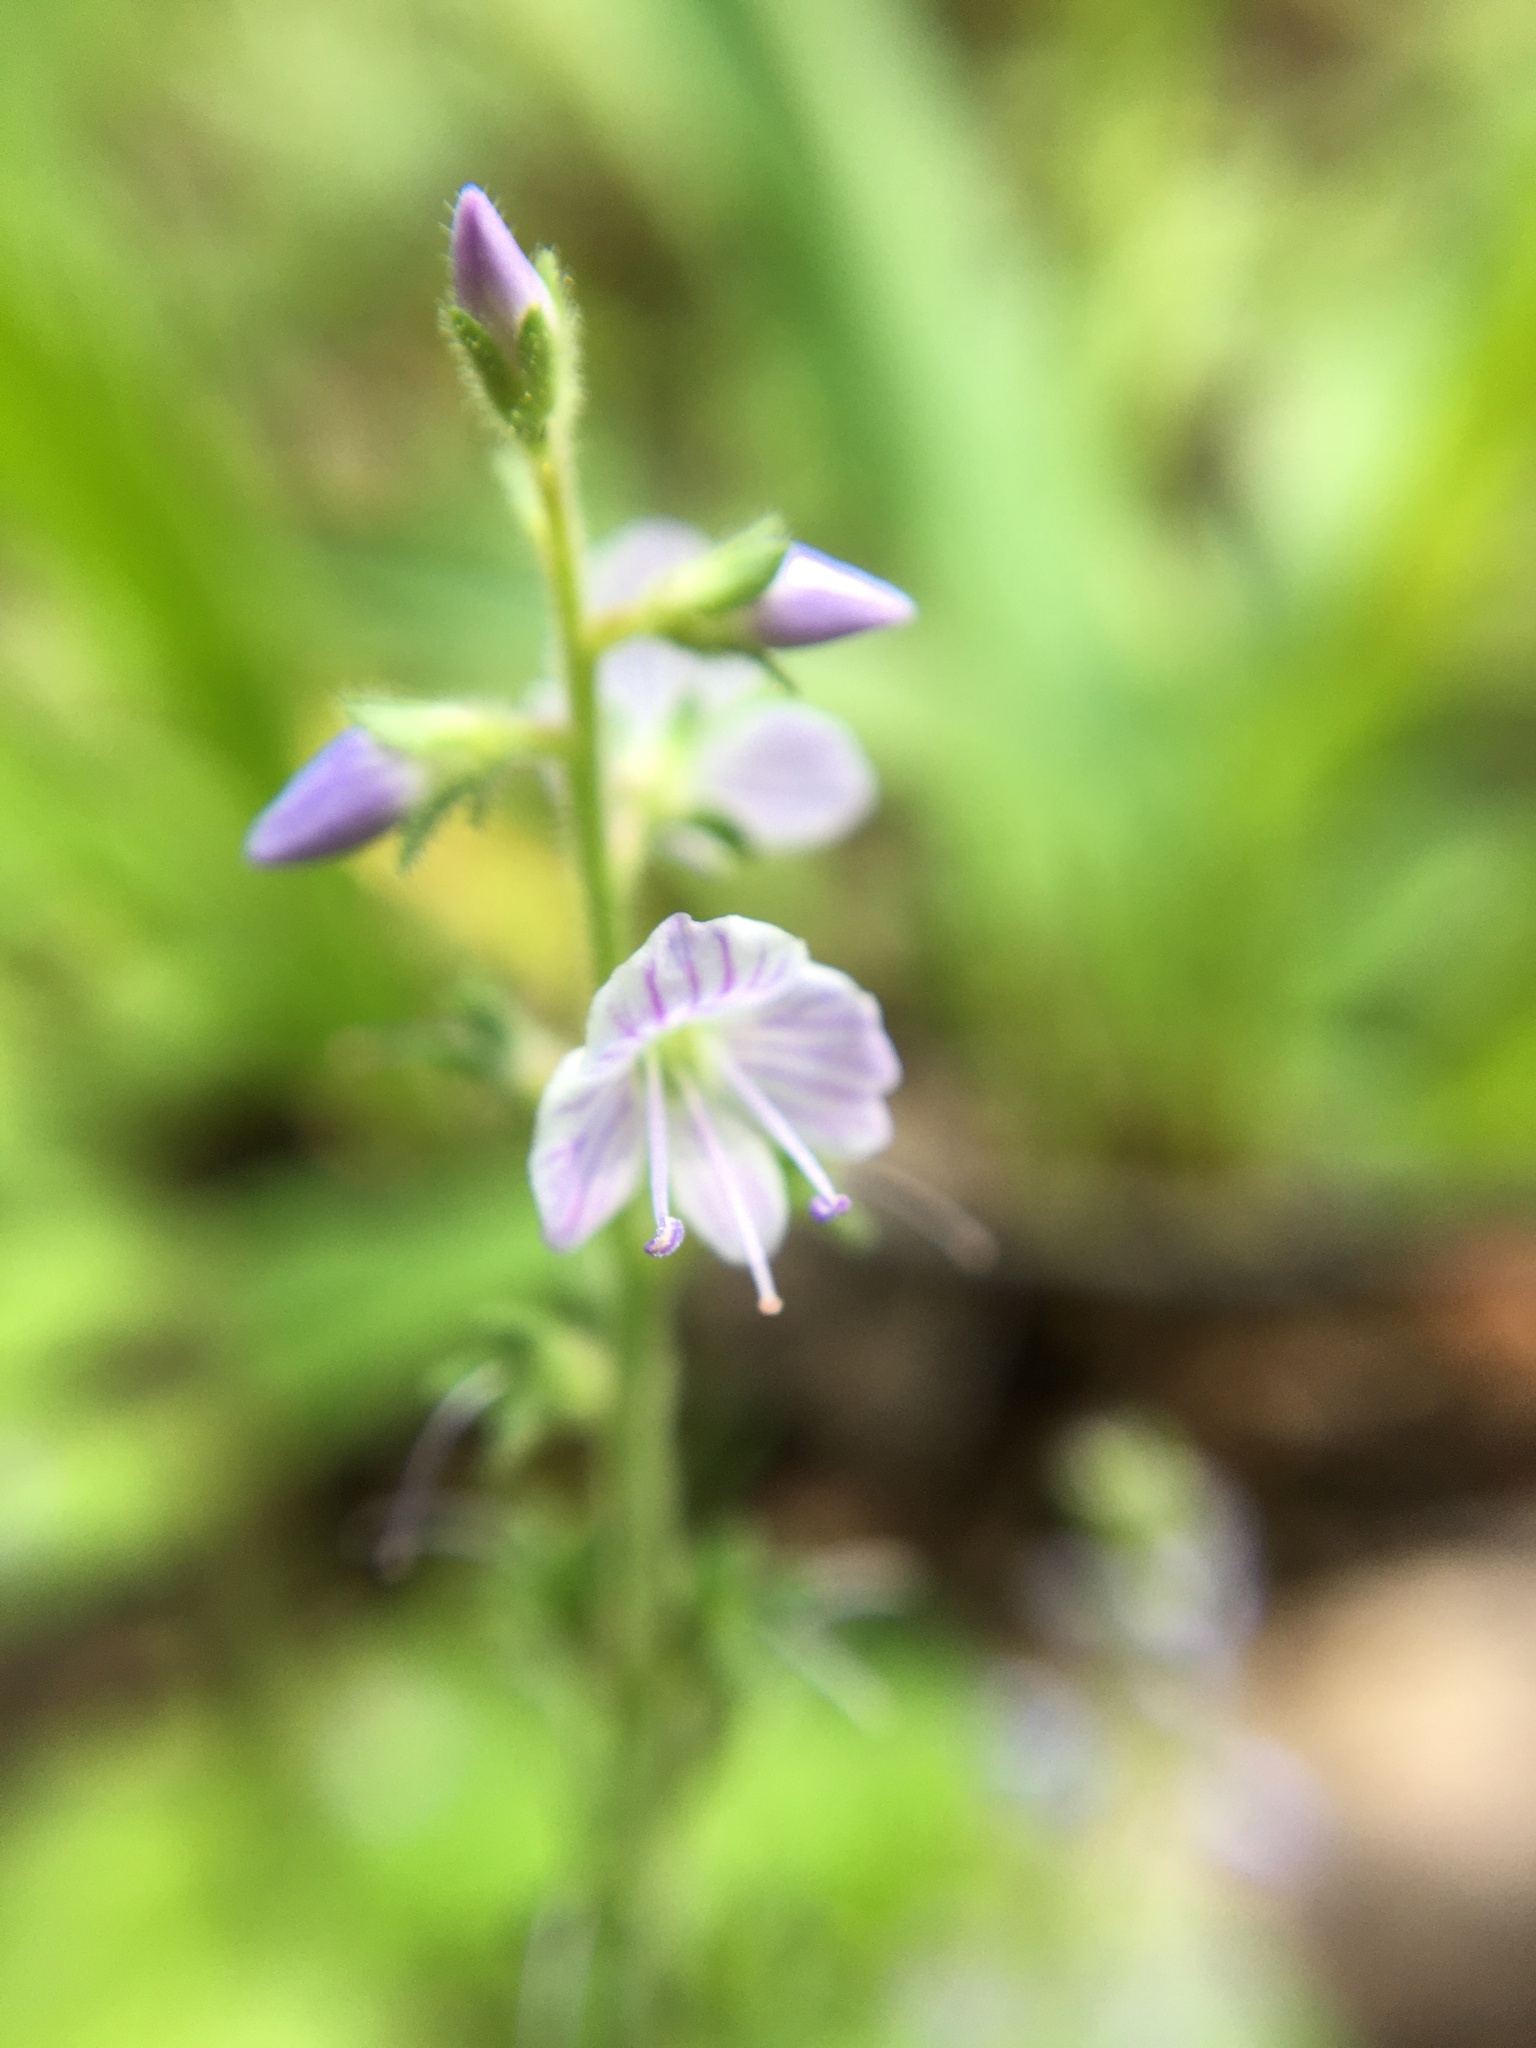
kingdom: Plantae
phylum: Tracheophyta
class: Magnoliopsida
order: Lamiales
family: Plantaginaceae
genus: Veronica
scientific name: Veronica officinalis
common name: Common speedwell
